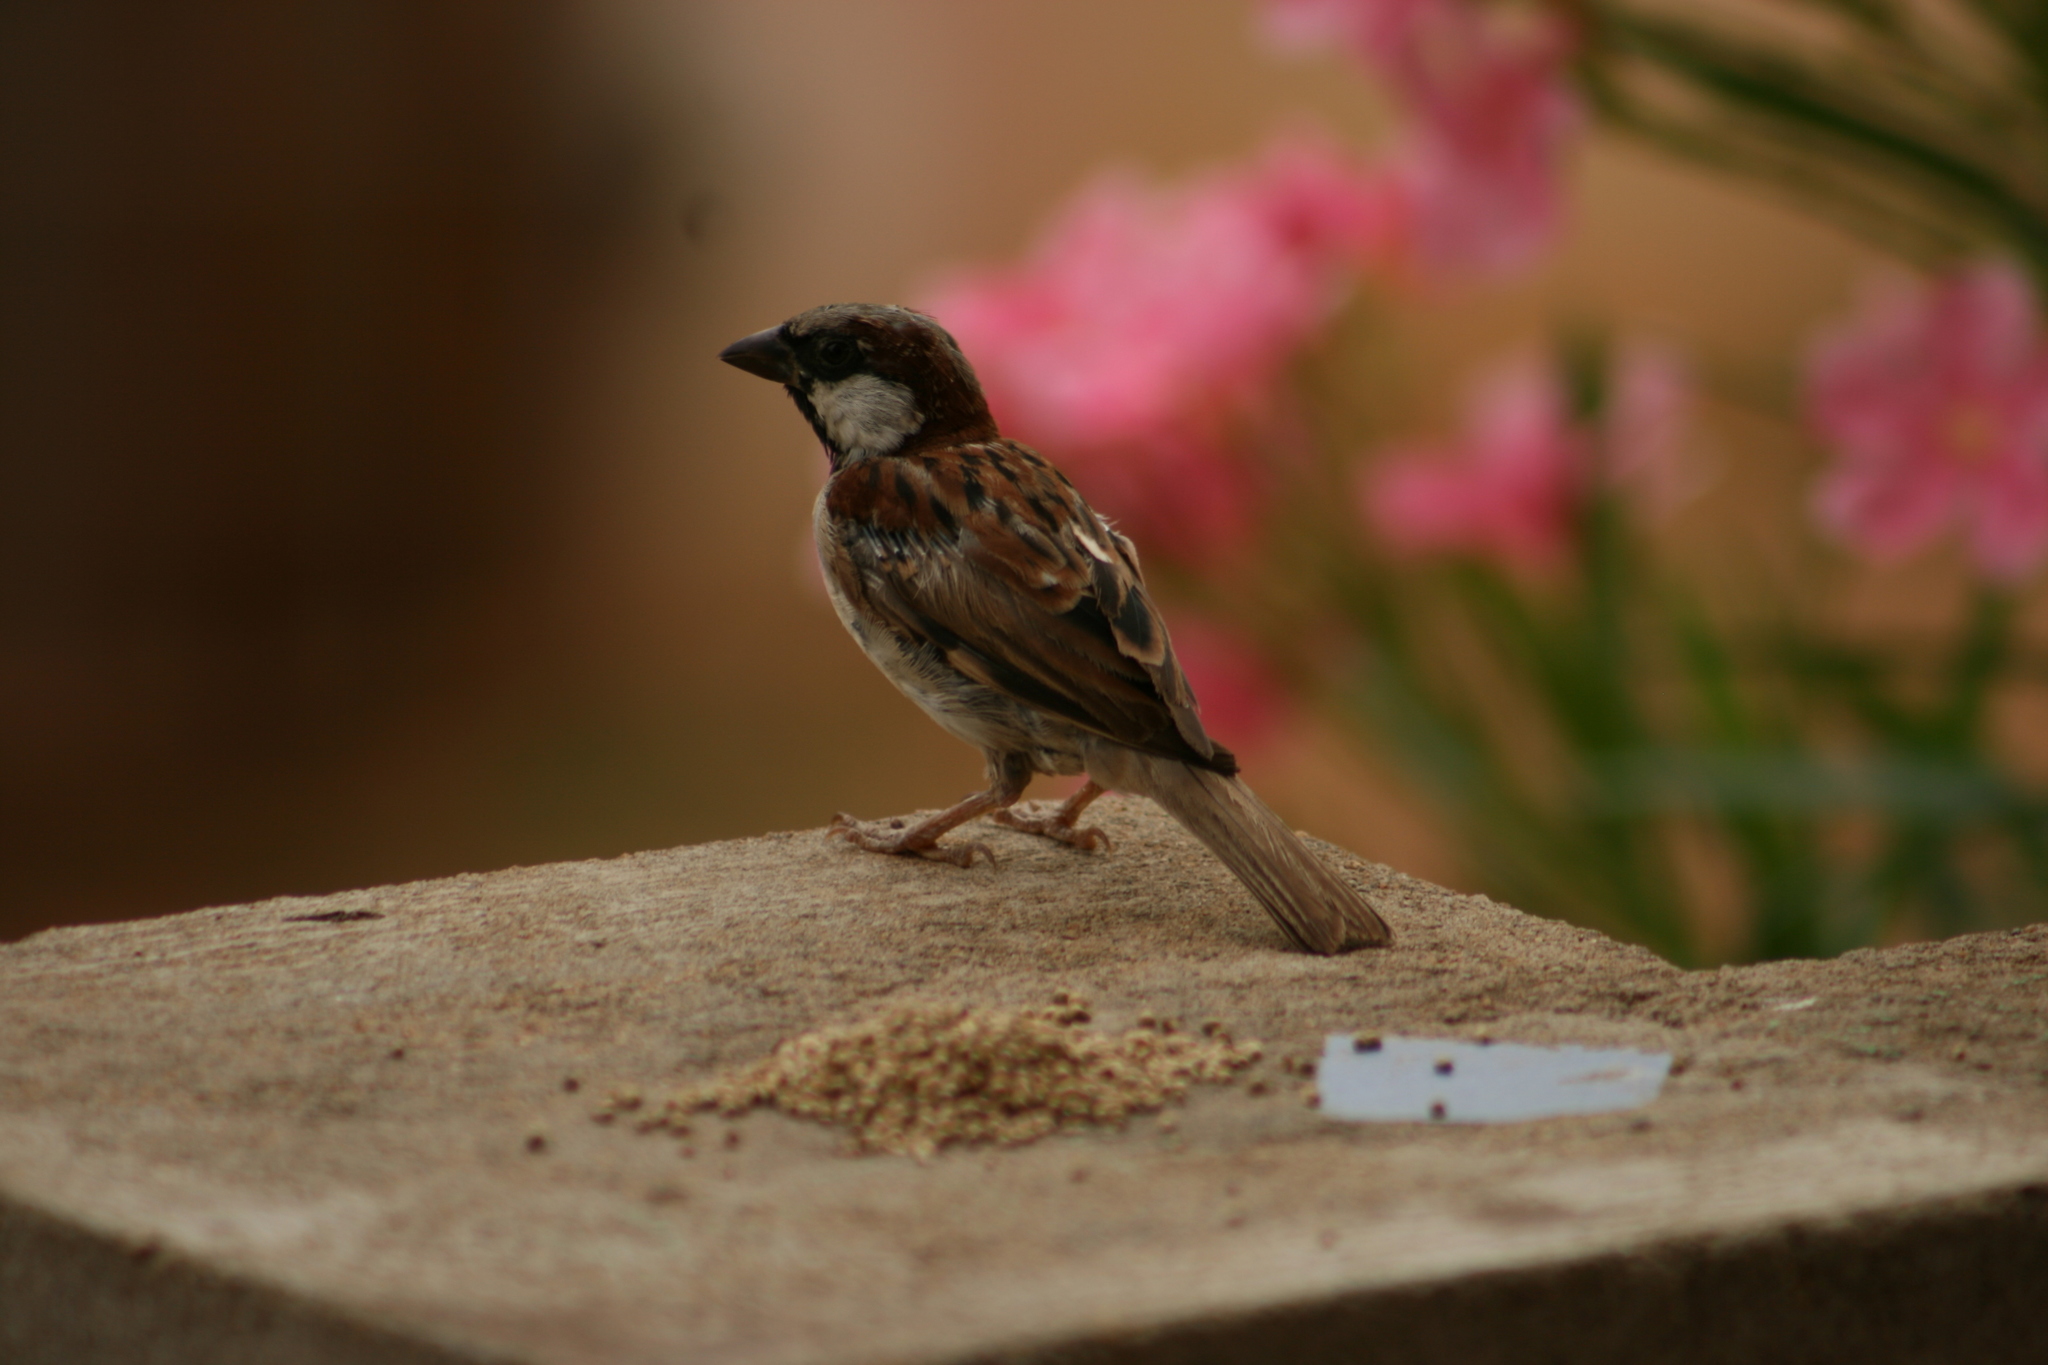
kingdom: Animalia
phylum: Chordata
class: Aves
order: Passeriformes
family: Passeridae
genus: Passer
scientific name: Passer domesticus
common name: House sparrow
